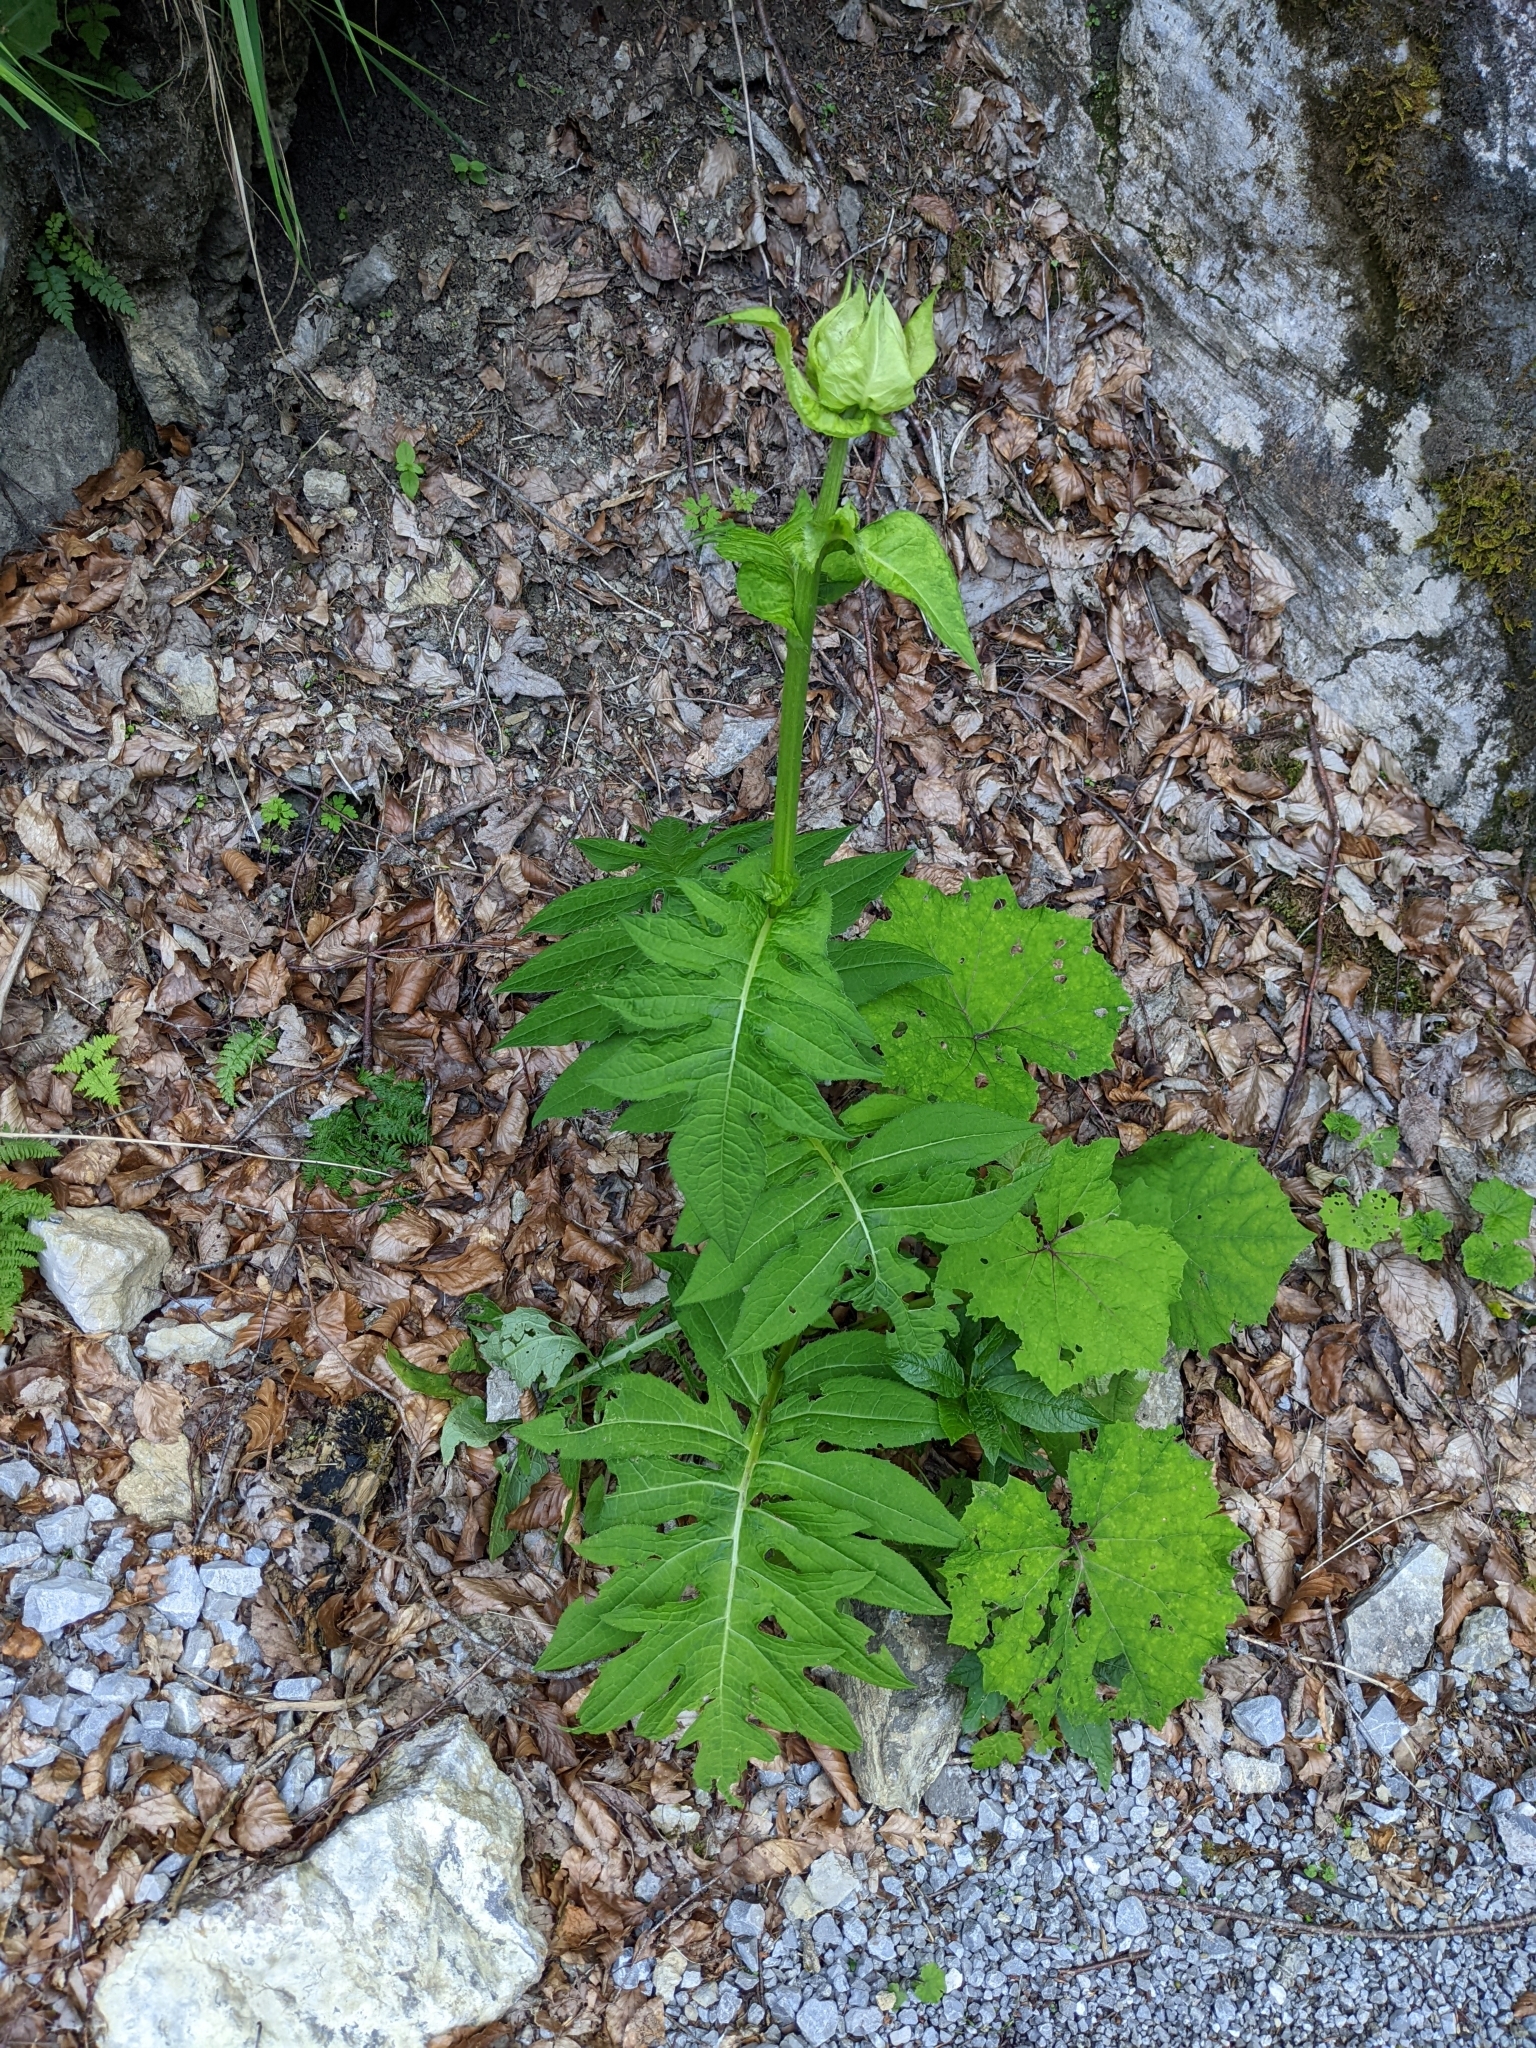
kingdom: Plantae
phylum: Tracheophyta
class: Magnoliopsida
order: Asterales
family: Asteraceae
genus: Cirsium
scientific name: Cirsium oleraceum
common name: Cabbage thistle
